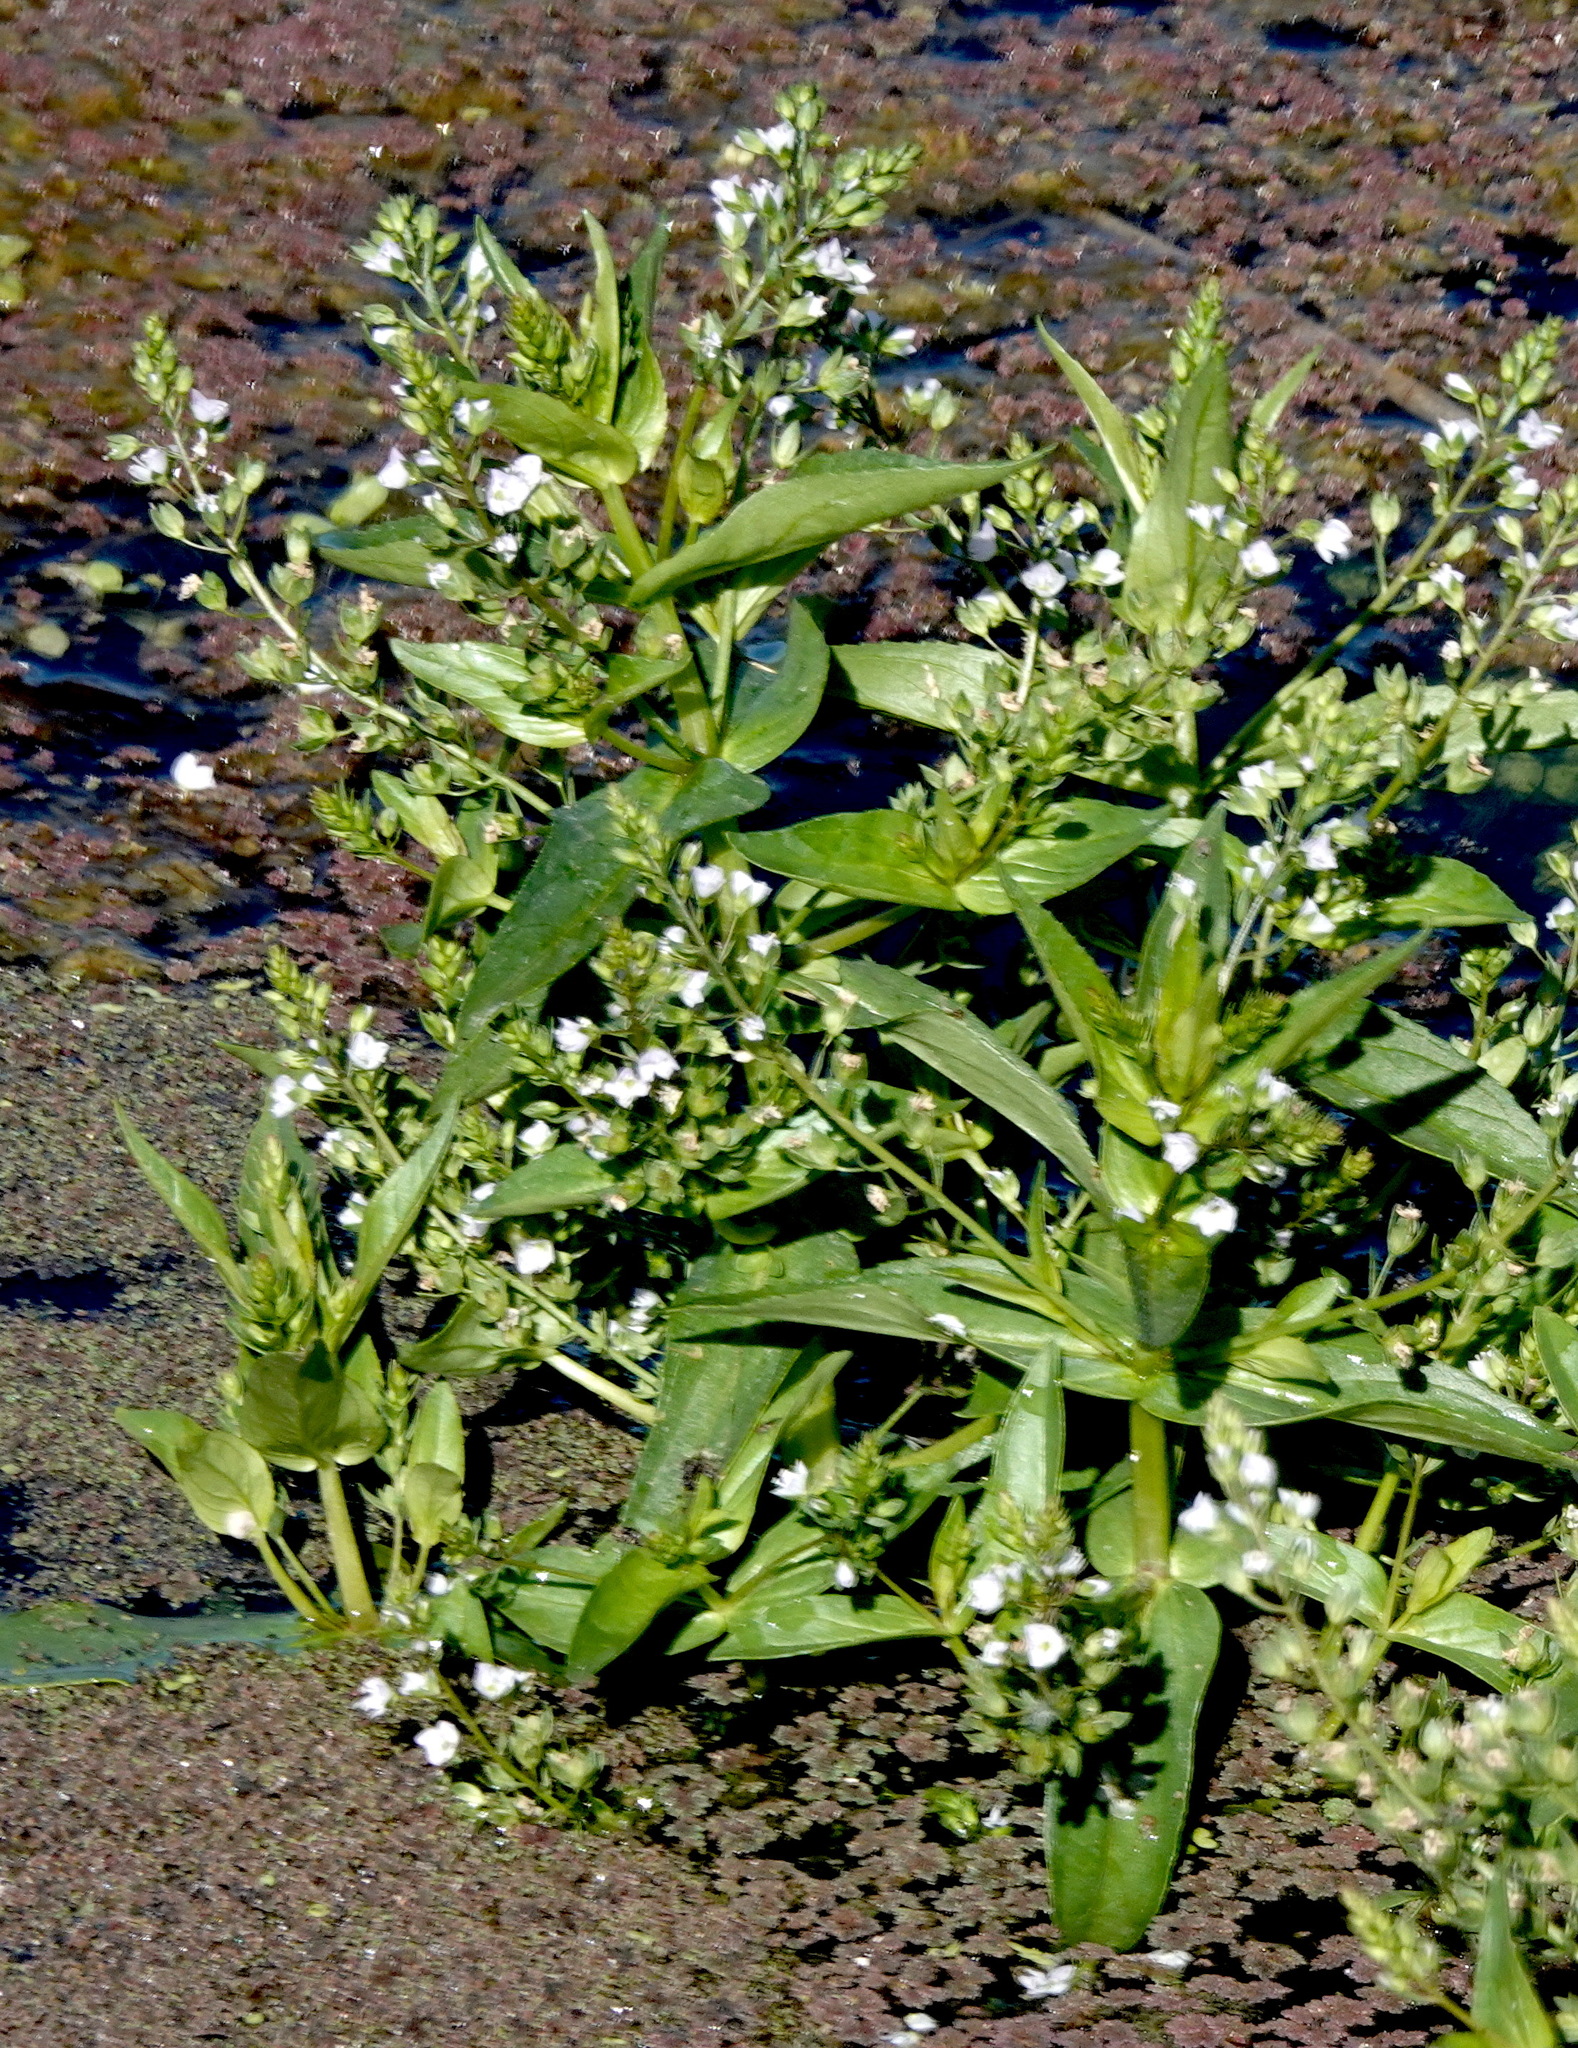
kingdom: Plantae
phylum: Tracheophyta
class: Magnoliopsida
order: Lamiales
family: Plantaginaceae
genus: Veronica
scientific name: Veronica anagallis-aquatica
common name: Water speedwell
